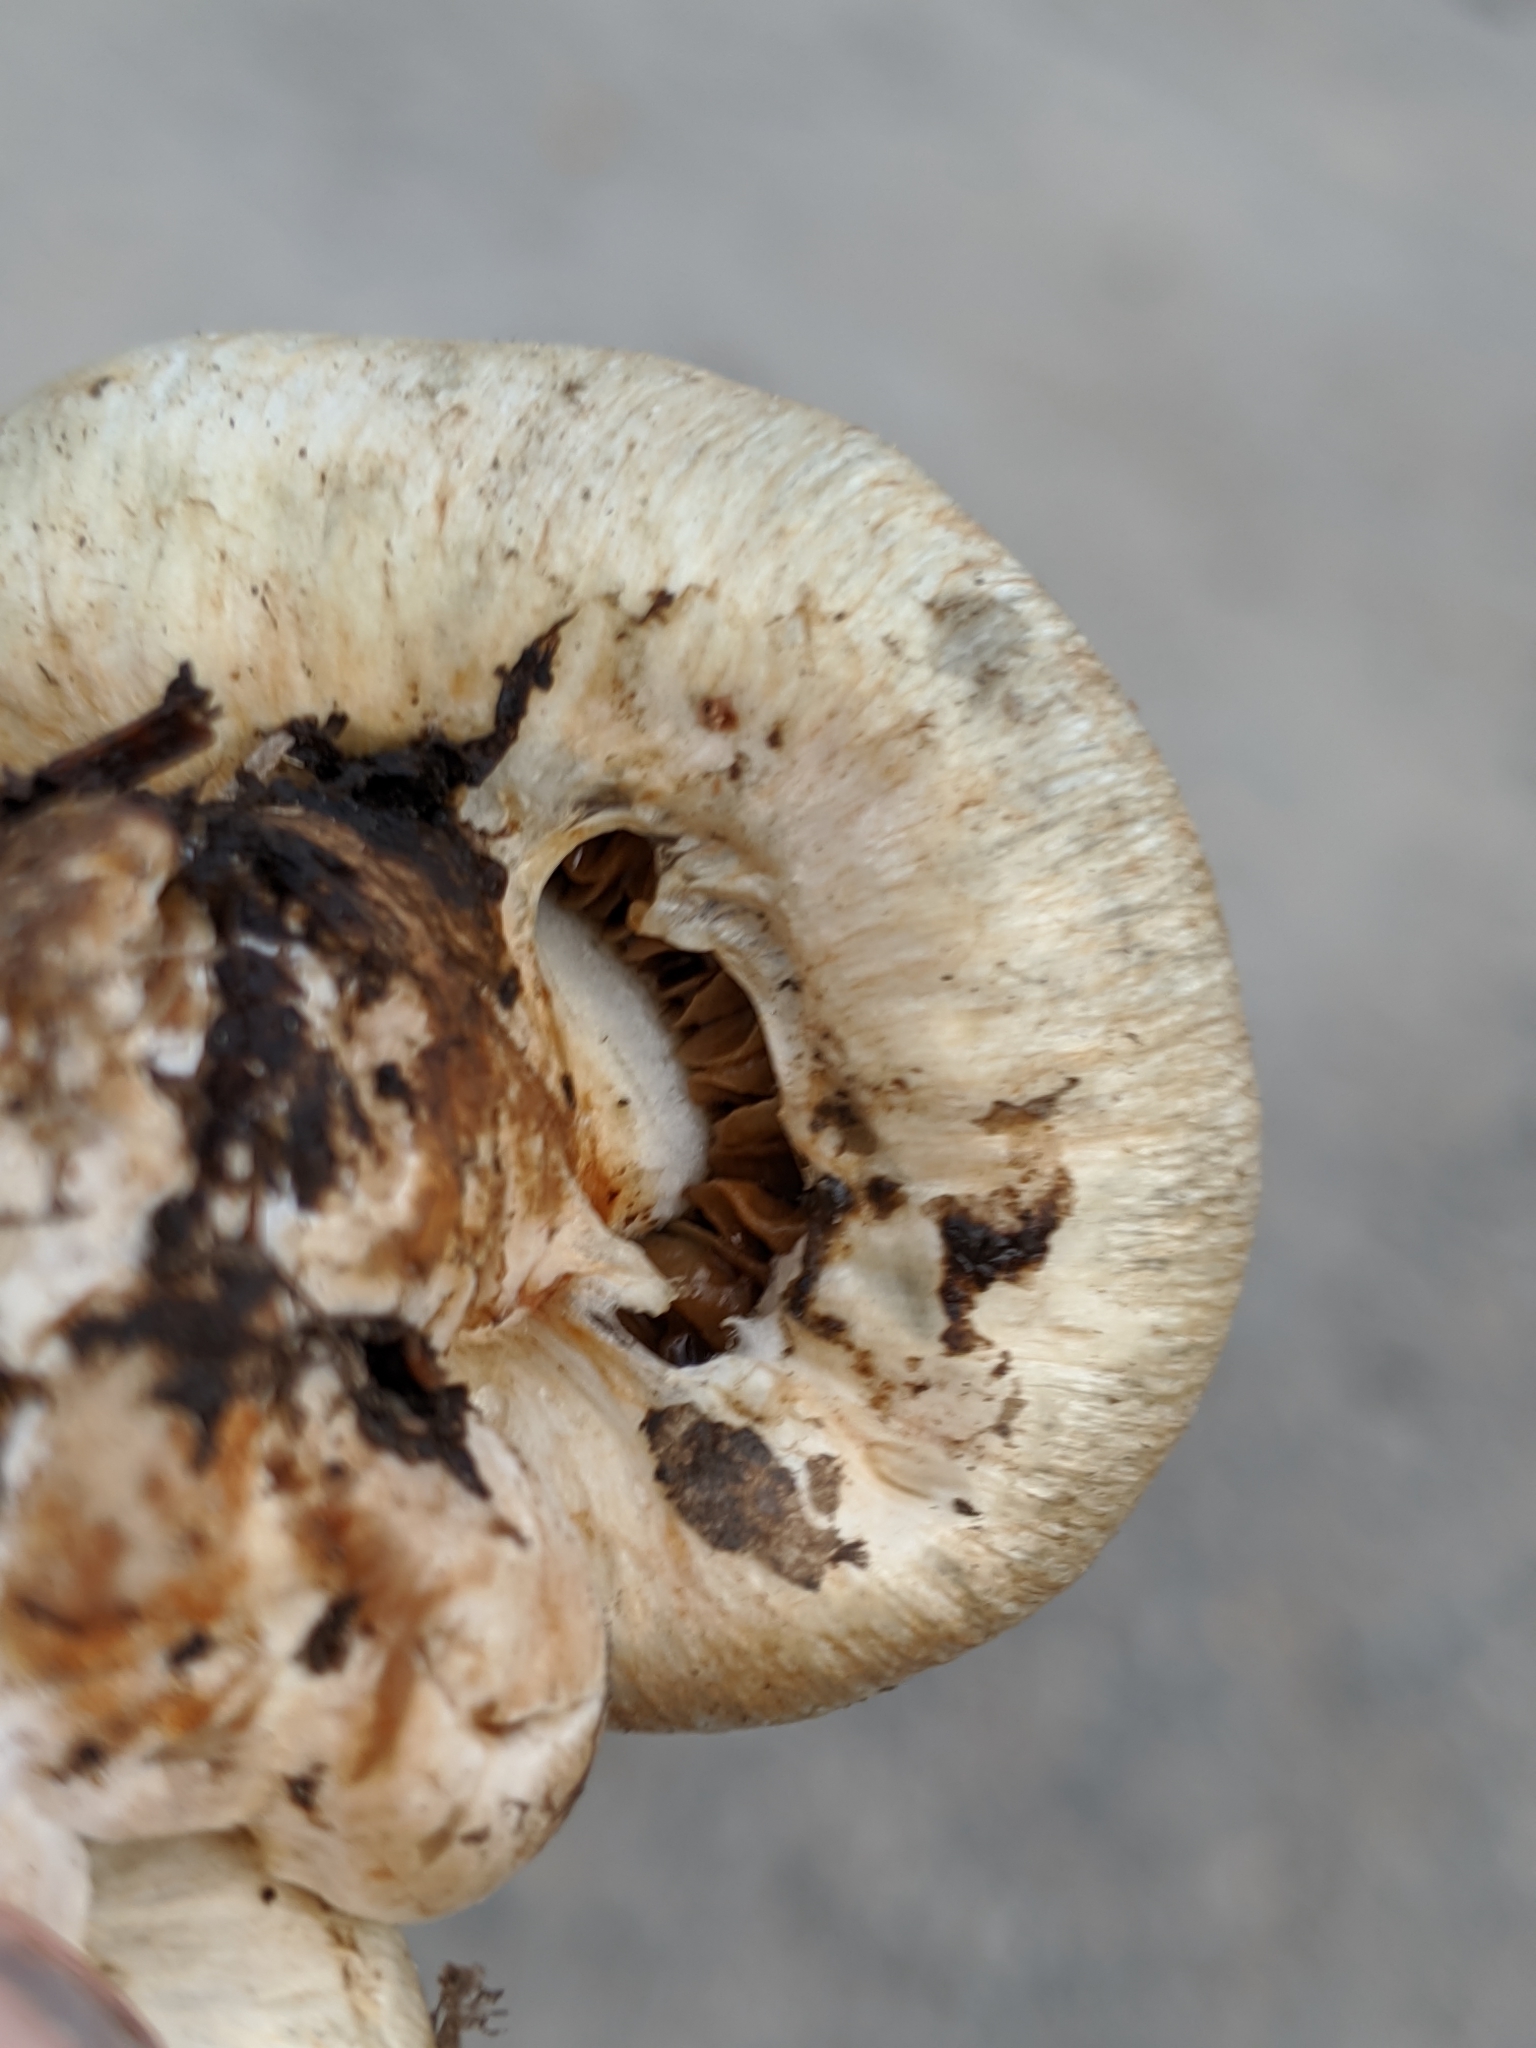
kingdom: Fungi
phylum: Basidiomycota
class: Agaricomycetes
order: Agaricales
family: Strophariaceae
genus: Pholiota
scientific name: Pholiota nubigena
